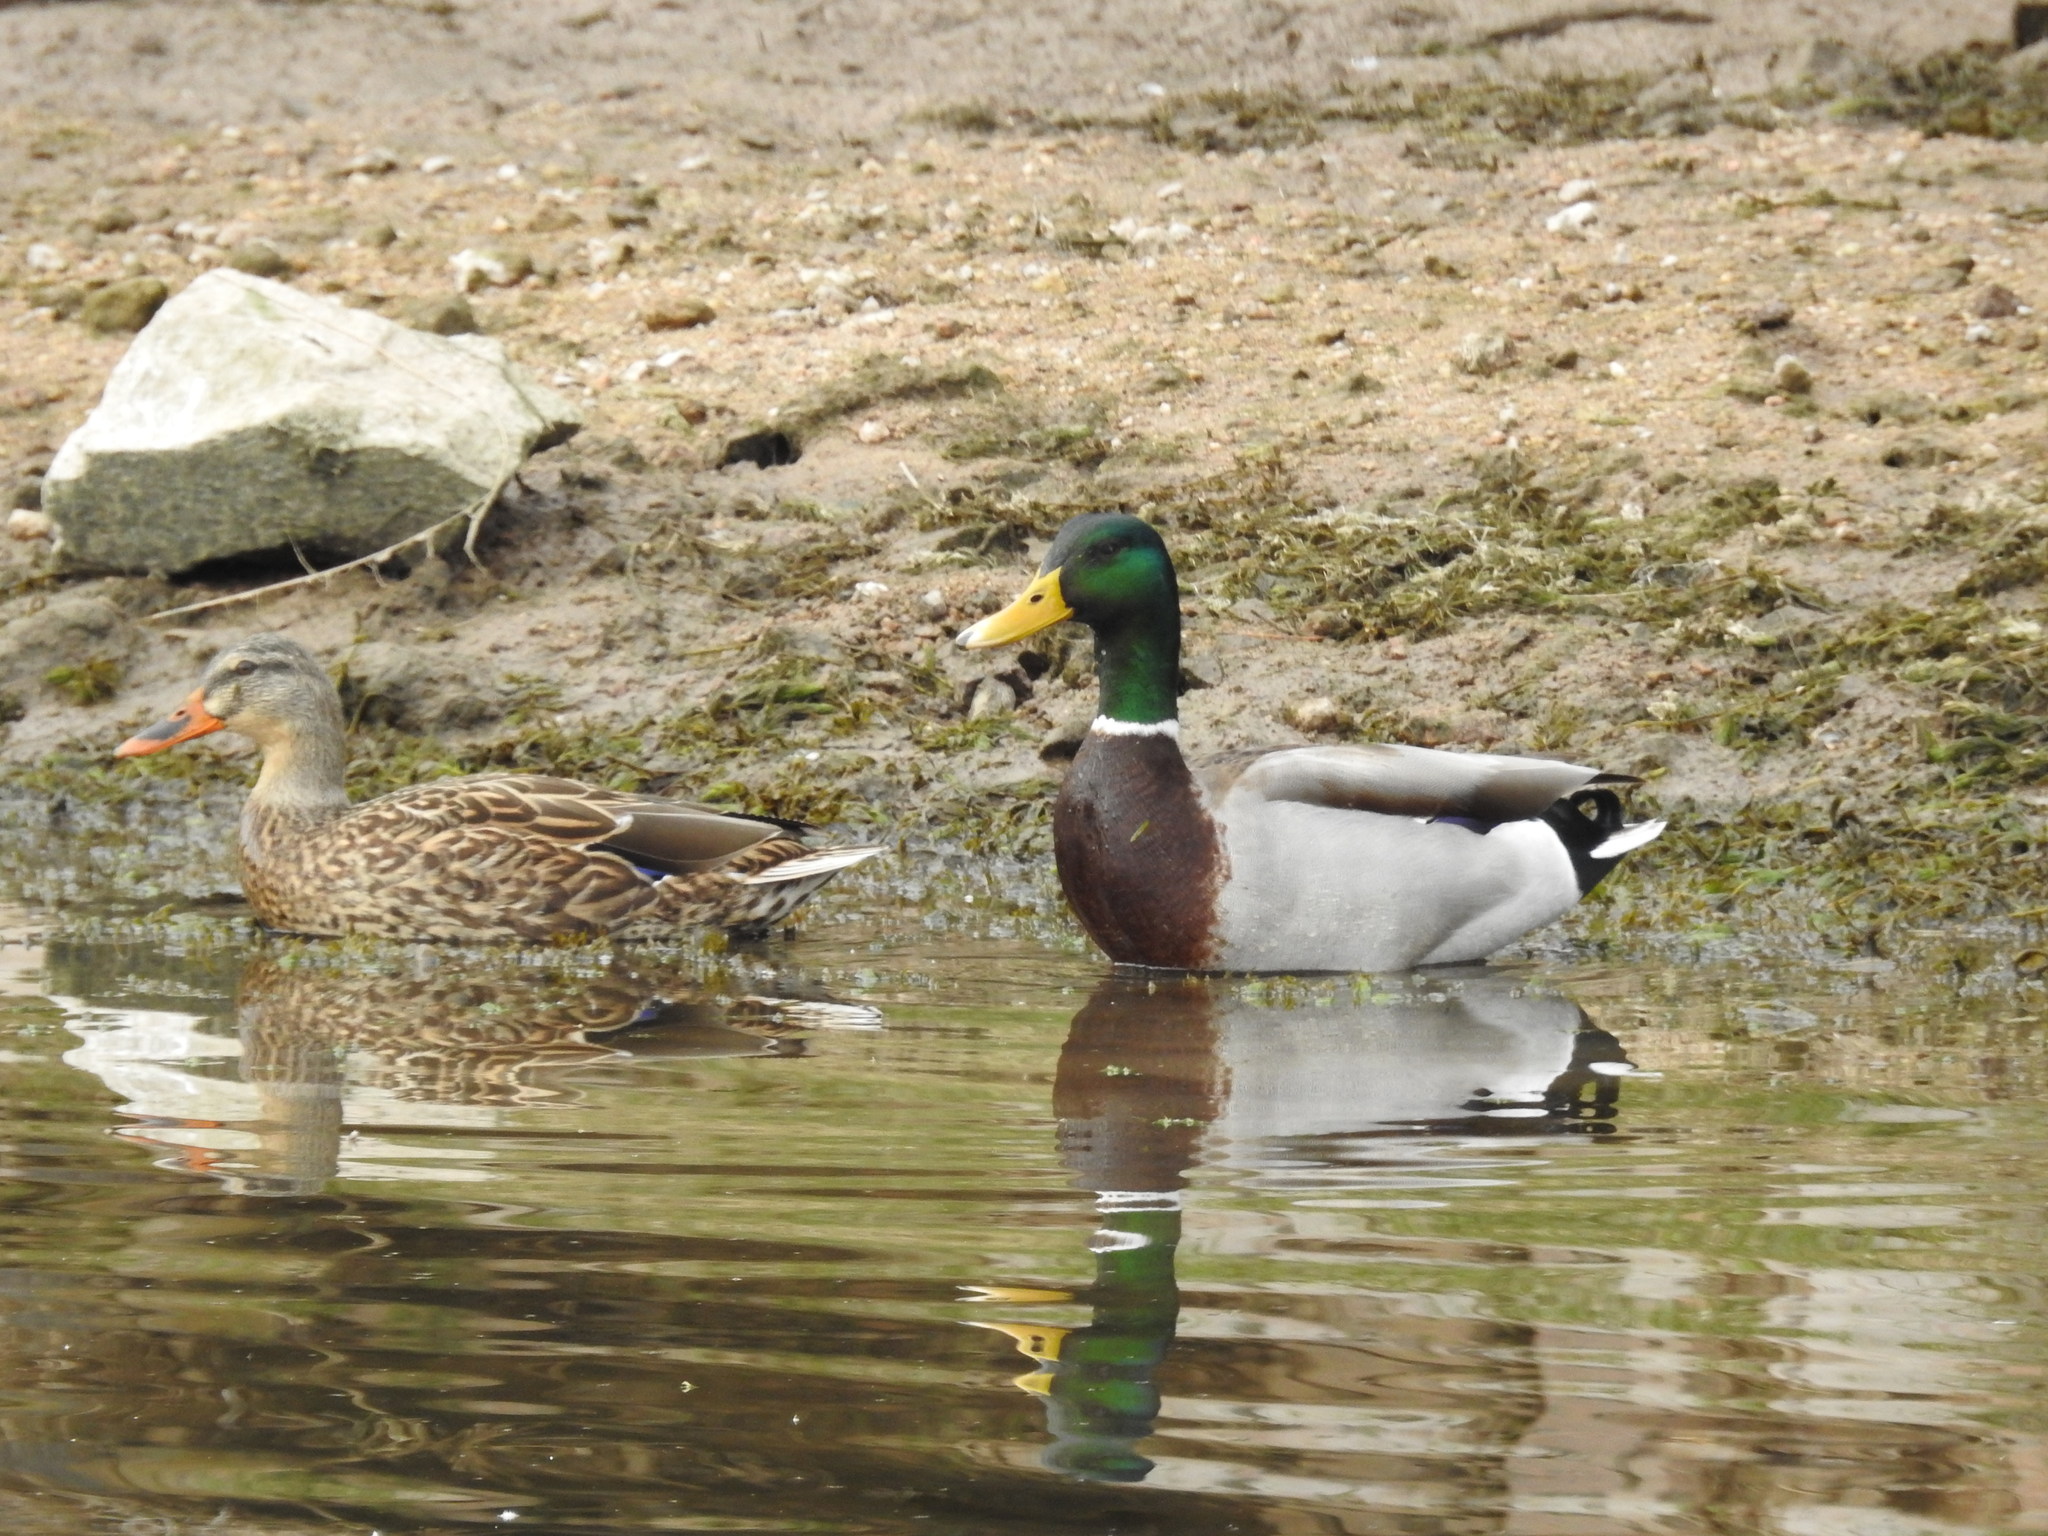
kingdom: Animalia
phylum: Chordata
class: Aves
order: Anseriformes
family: Anatidae
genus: Anas
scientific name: Anas platyrhynchos
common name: Mallard
